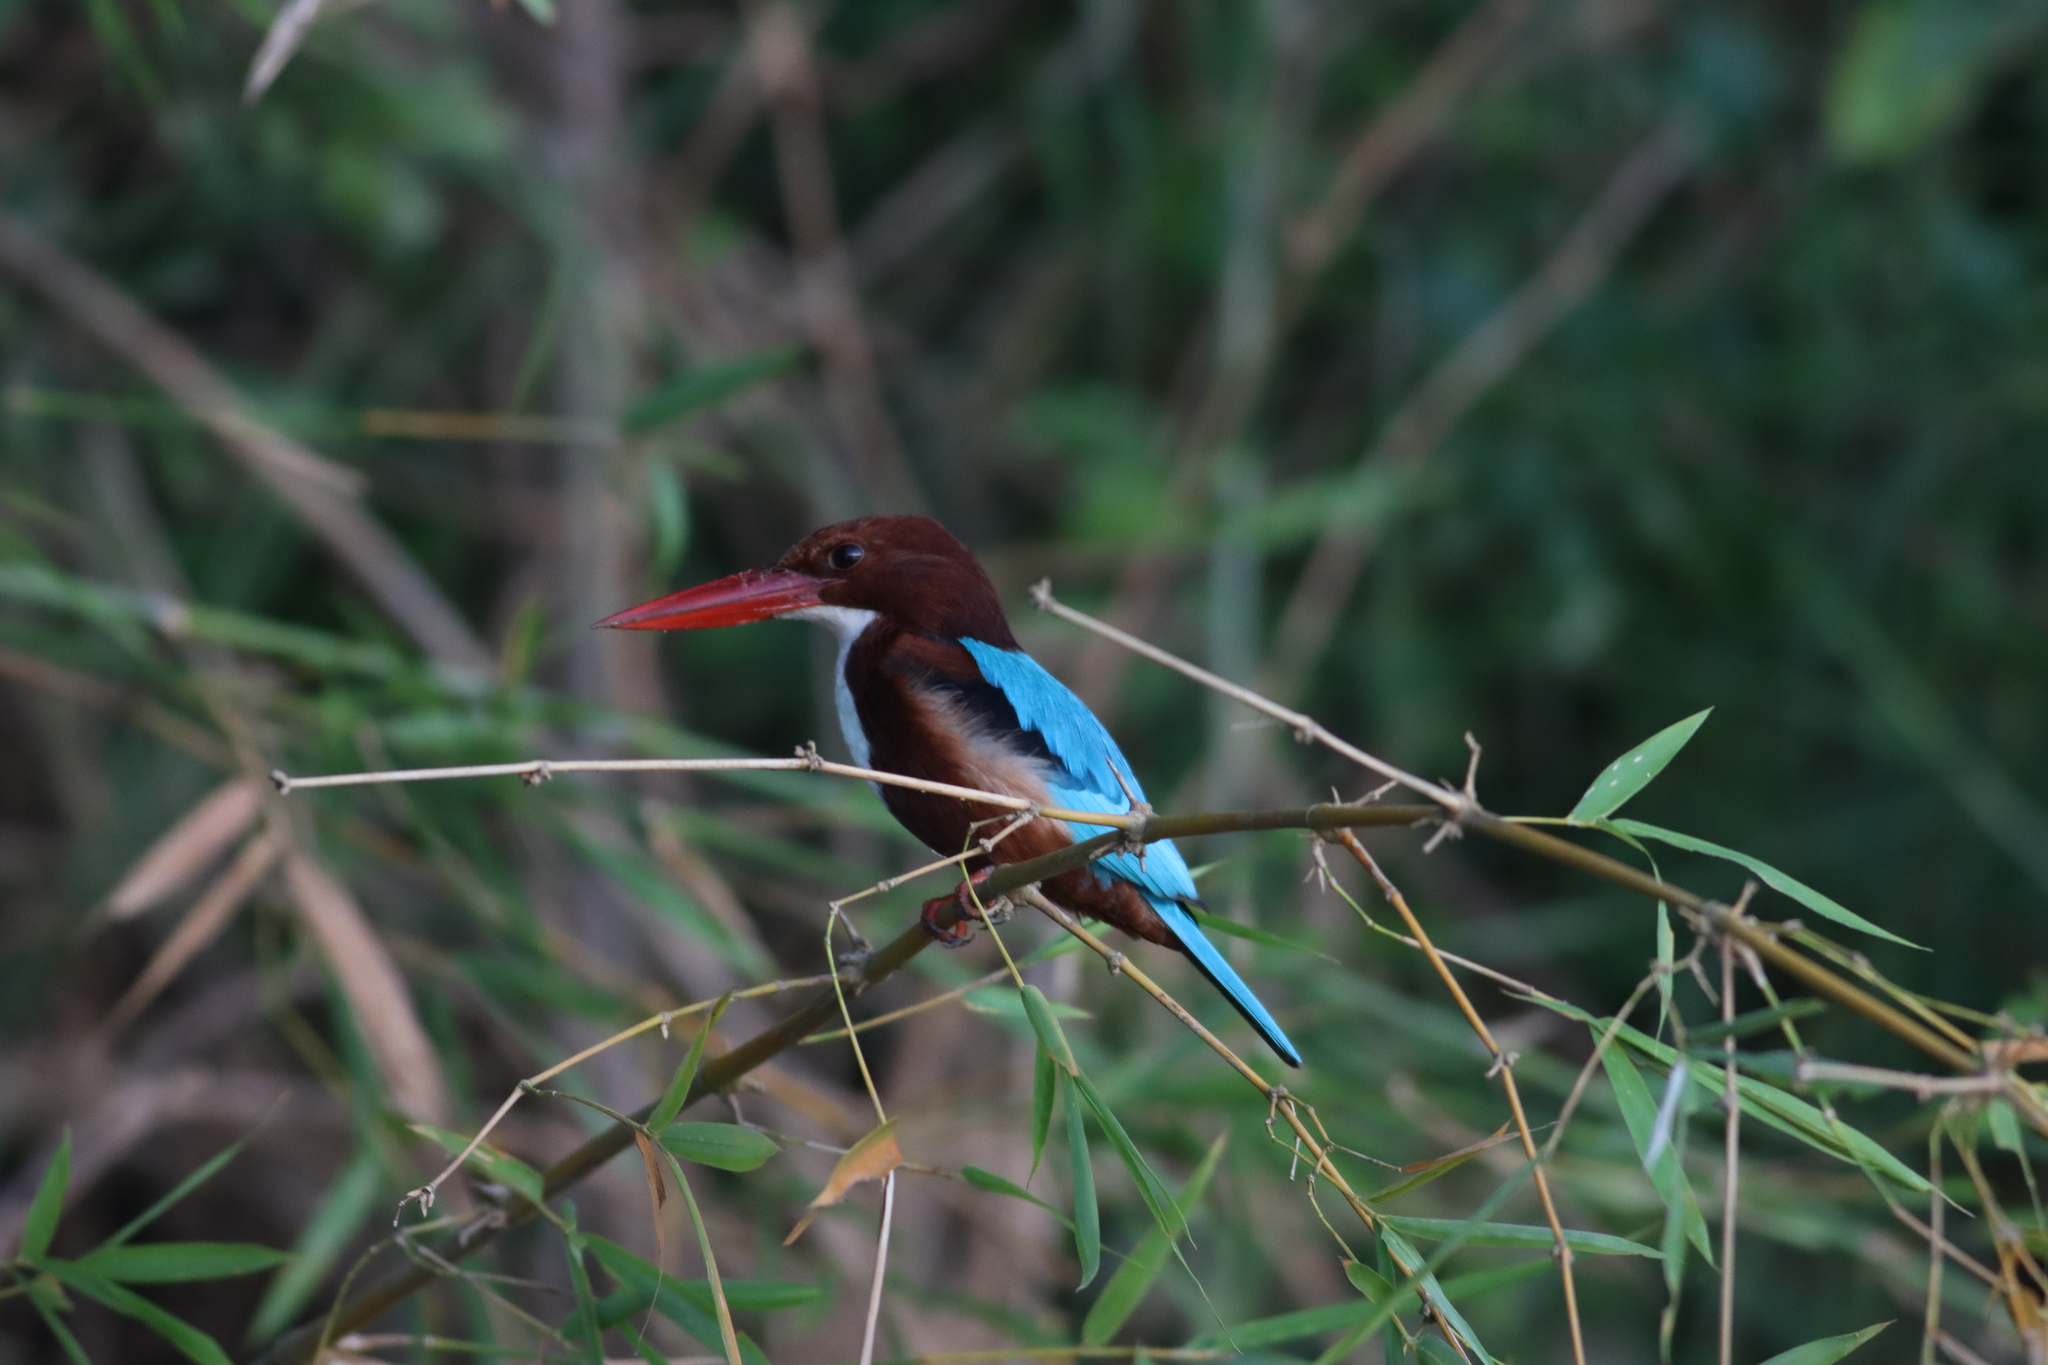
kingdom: Animalia
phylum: Chordata
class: Aves
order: Coraciiformes
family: Alcedinidae
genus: Halcyon
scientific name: Halcyon smyrnensis
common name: White-throated kingfisher
